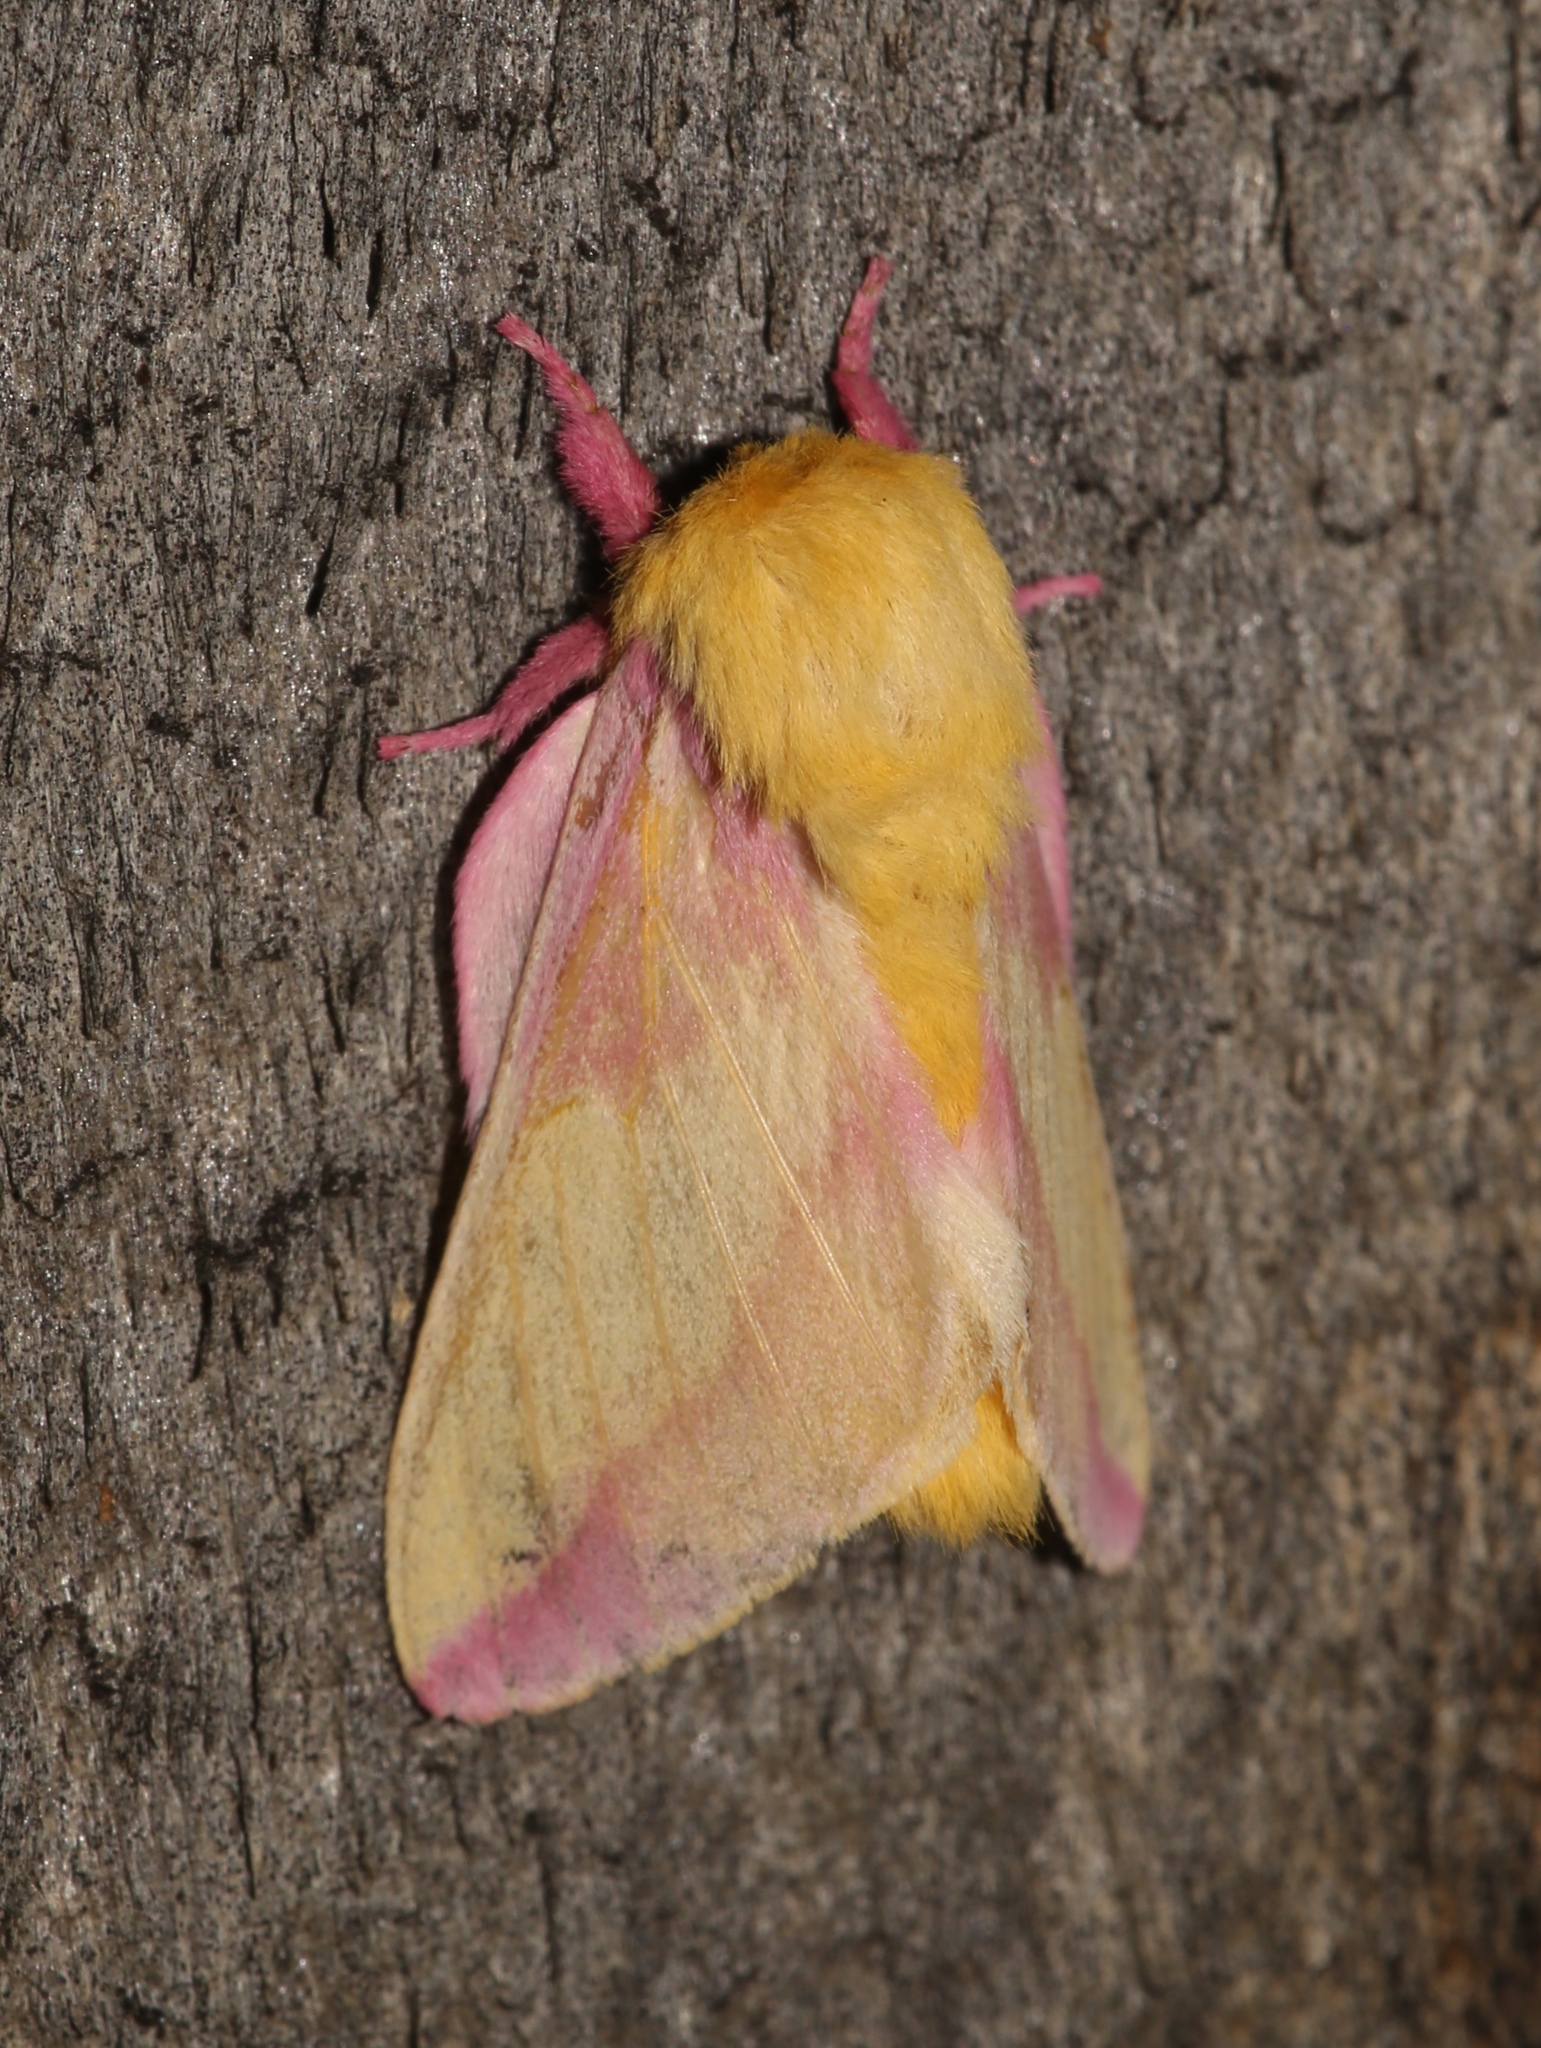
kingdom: Animalia
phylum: Arthropoda
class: Insecta
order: Lepidoptera
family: Saturniidae
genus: Dryocampa
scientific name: Dryocampa rubicunda
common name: Rosy maple moth
